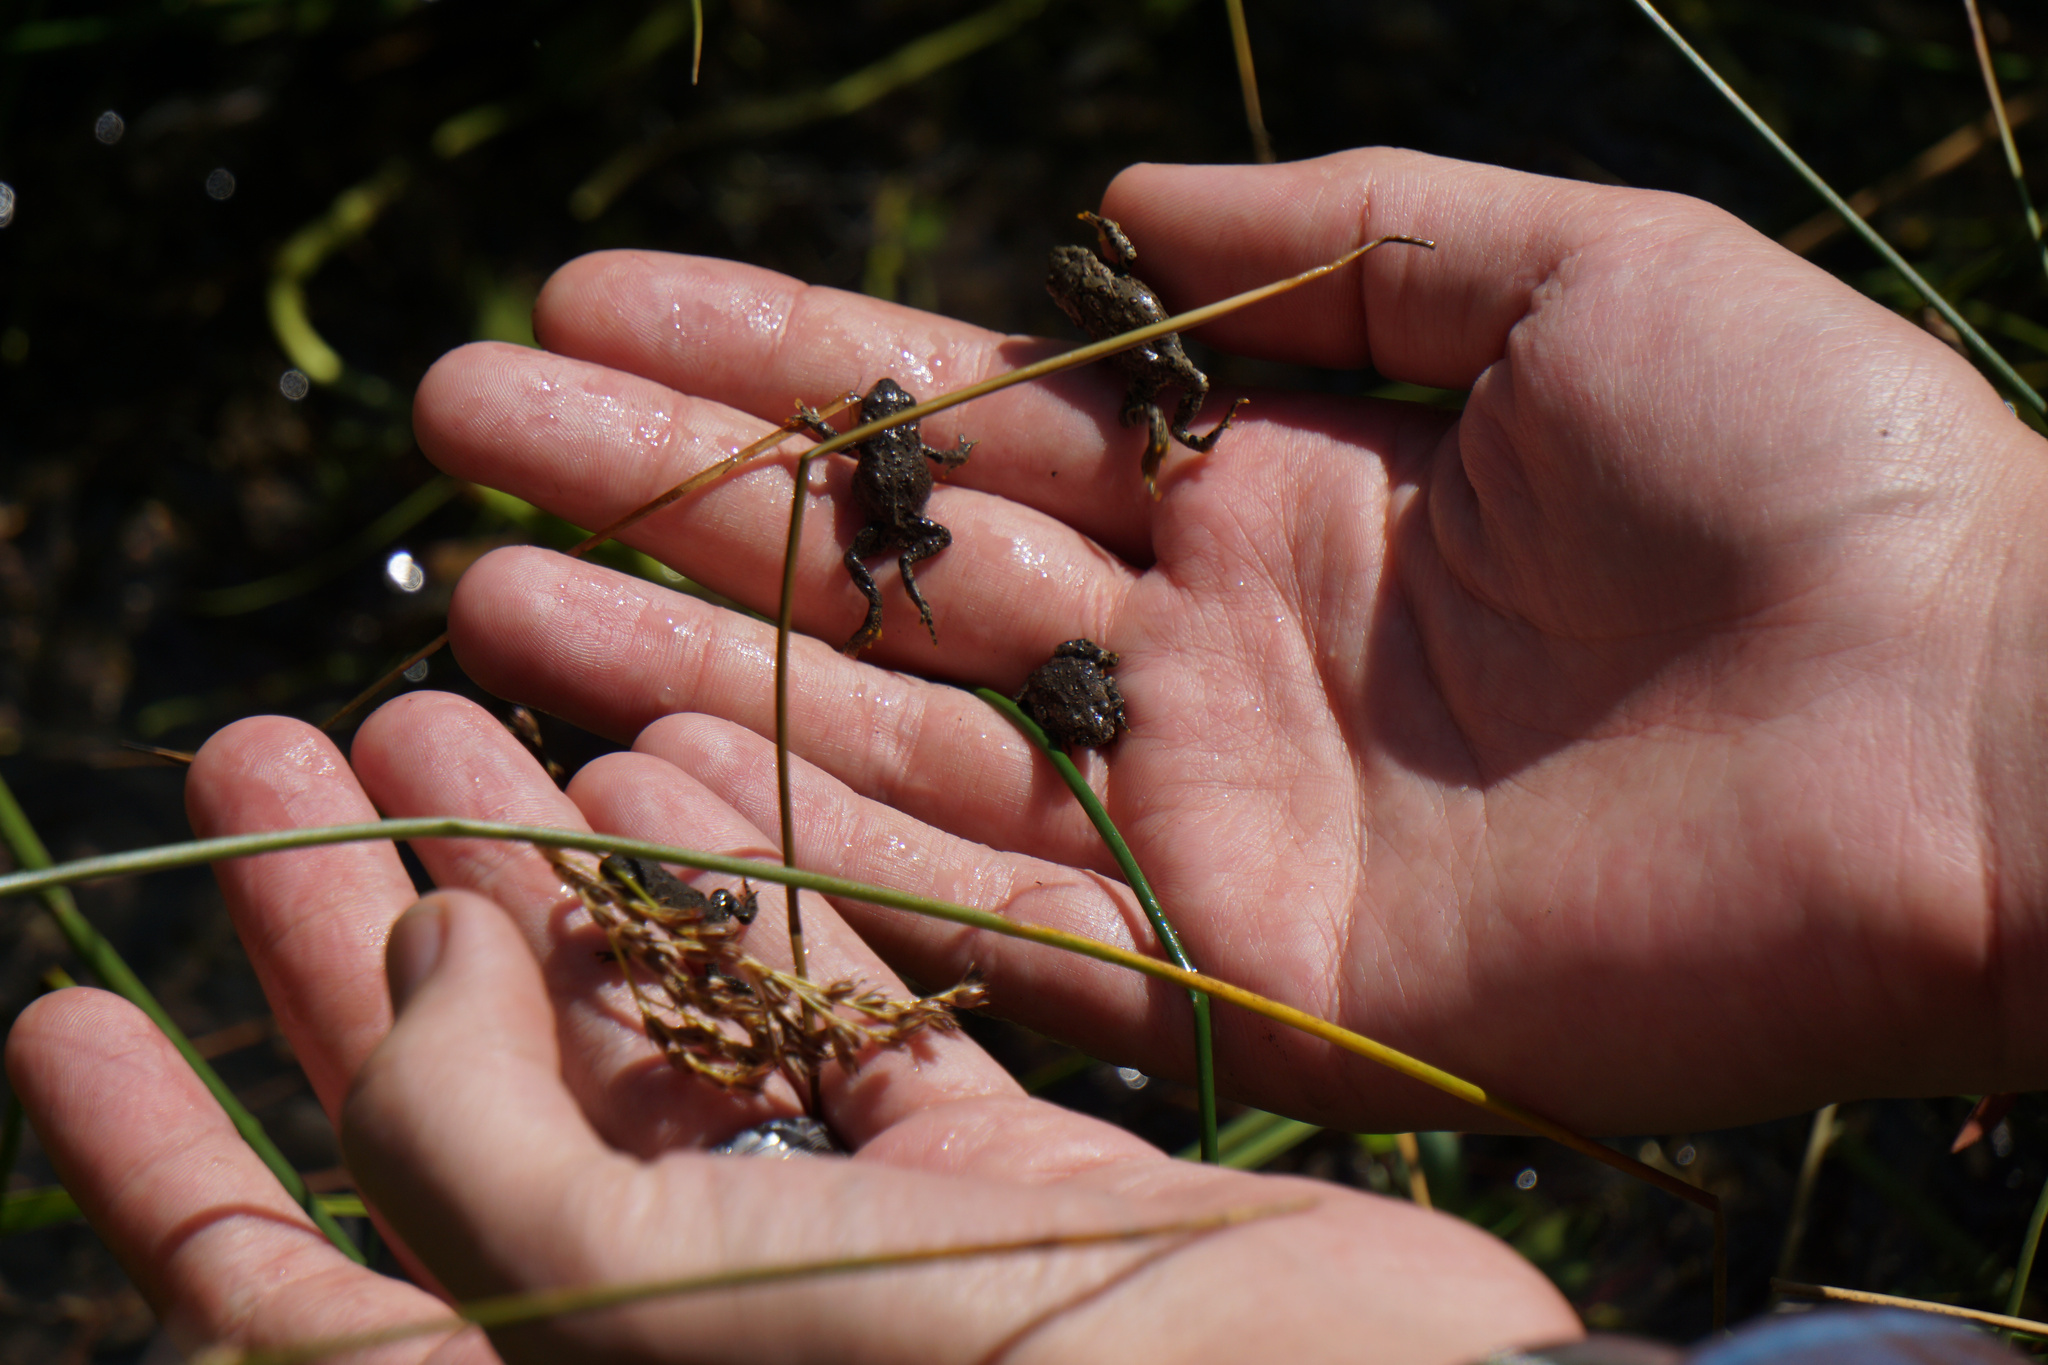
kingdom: Animalia
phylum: Chordata
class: Amphibia
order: Anura
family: Bufonidae
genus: Anaxyrus
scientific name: Anaxyrus boreas
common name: Western toad
